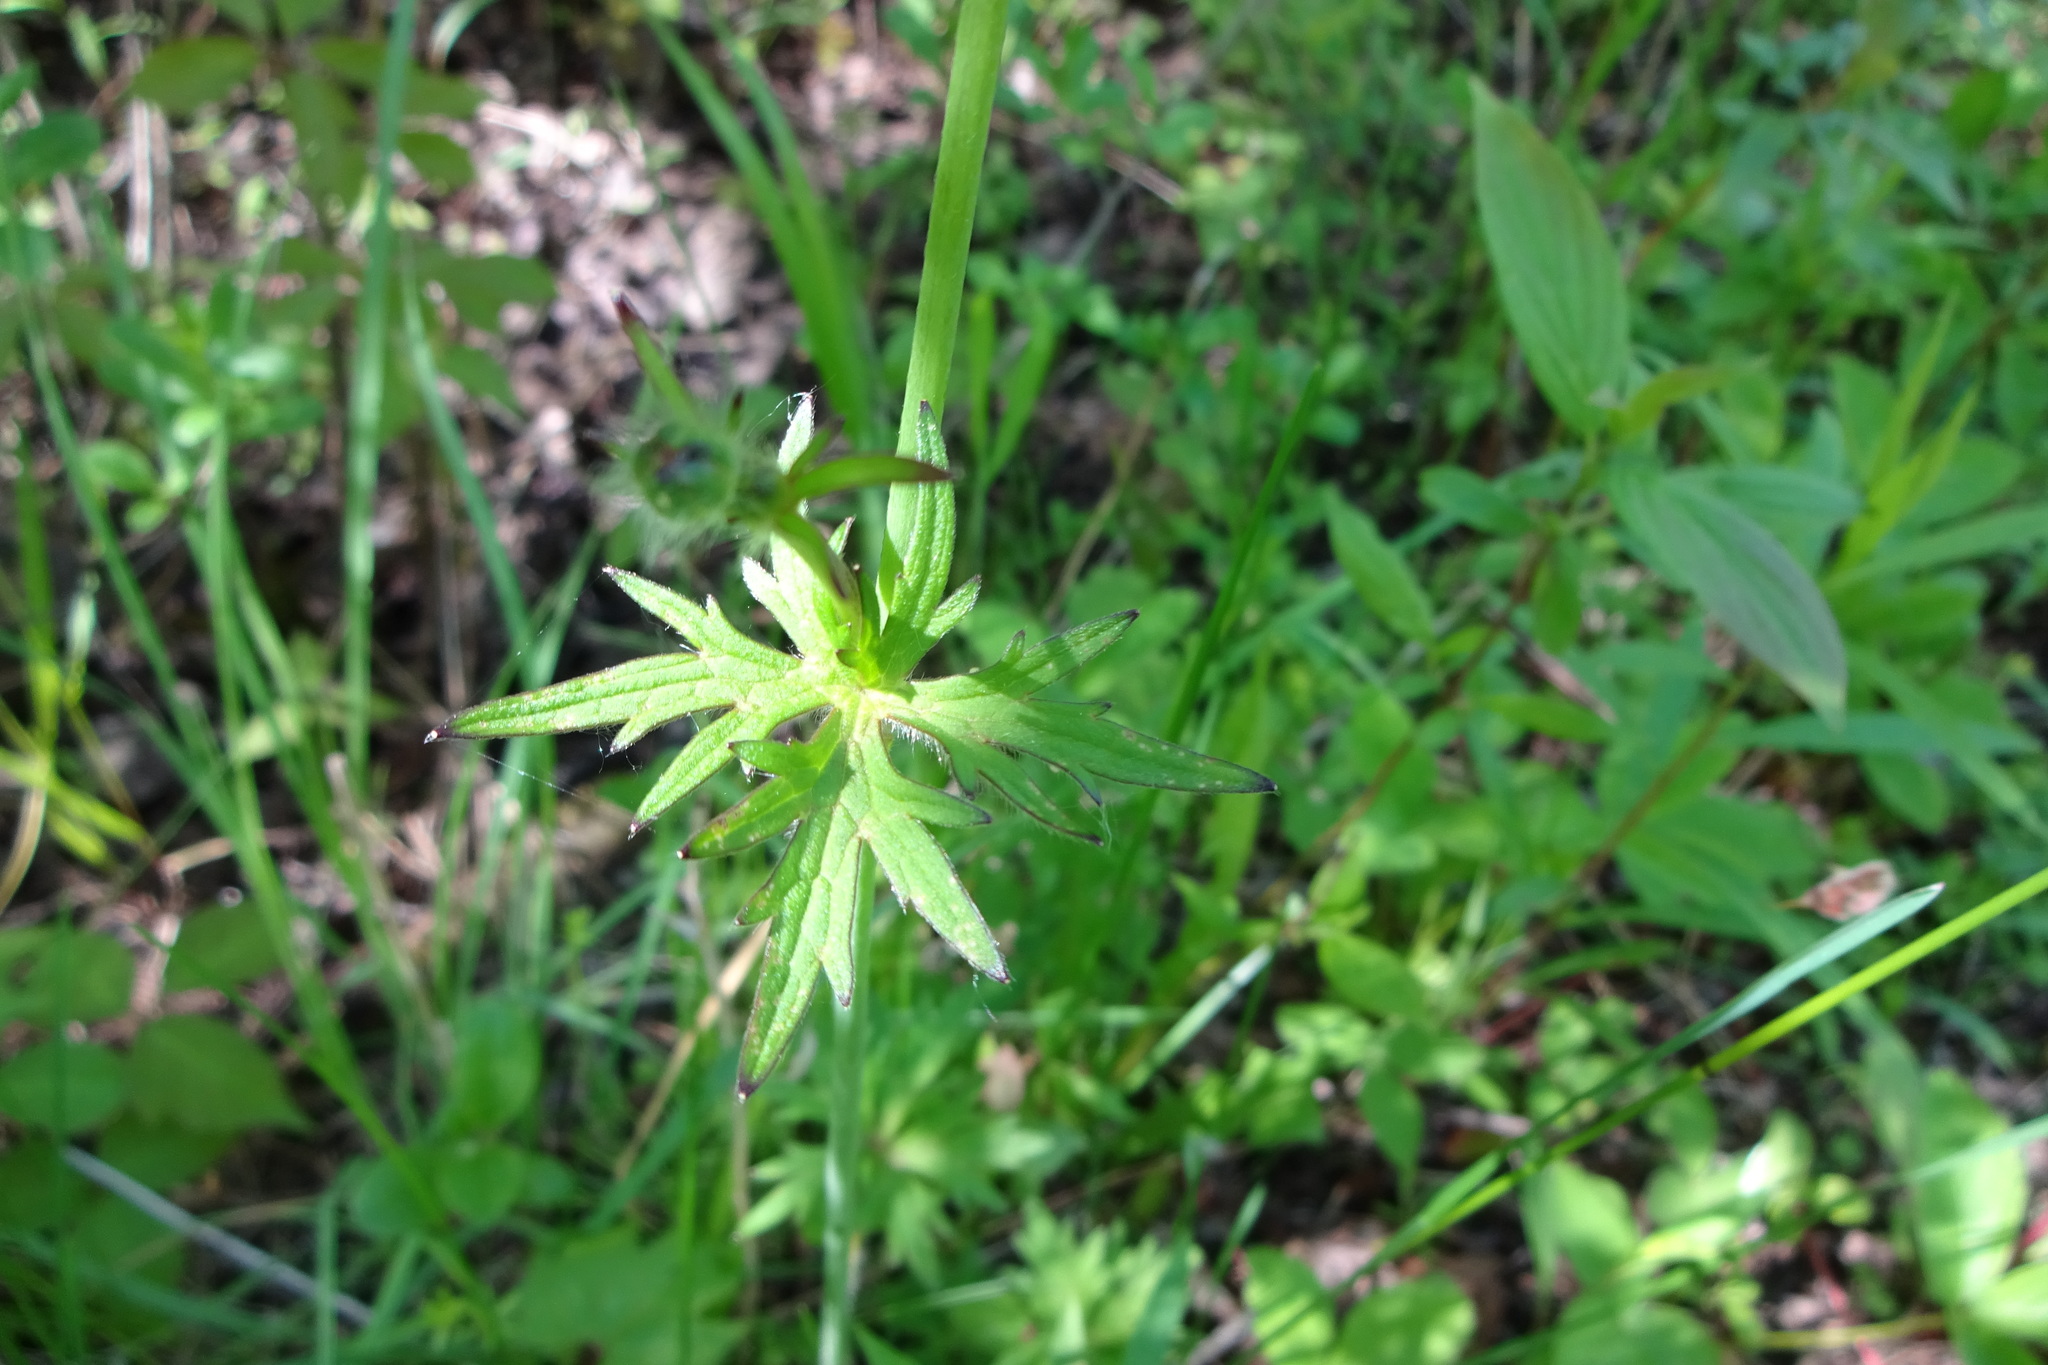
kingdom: Plantae
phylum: Tracheophyta
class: Magnoliopsida
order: Ranunculales
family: Ranunculaceae
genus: Ranunculus
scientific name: Ranunculus acris
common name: Meadow buttercup
